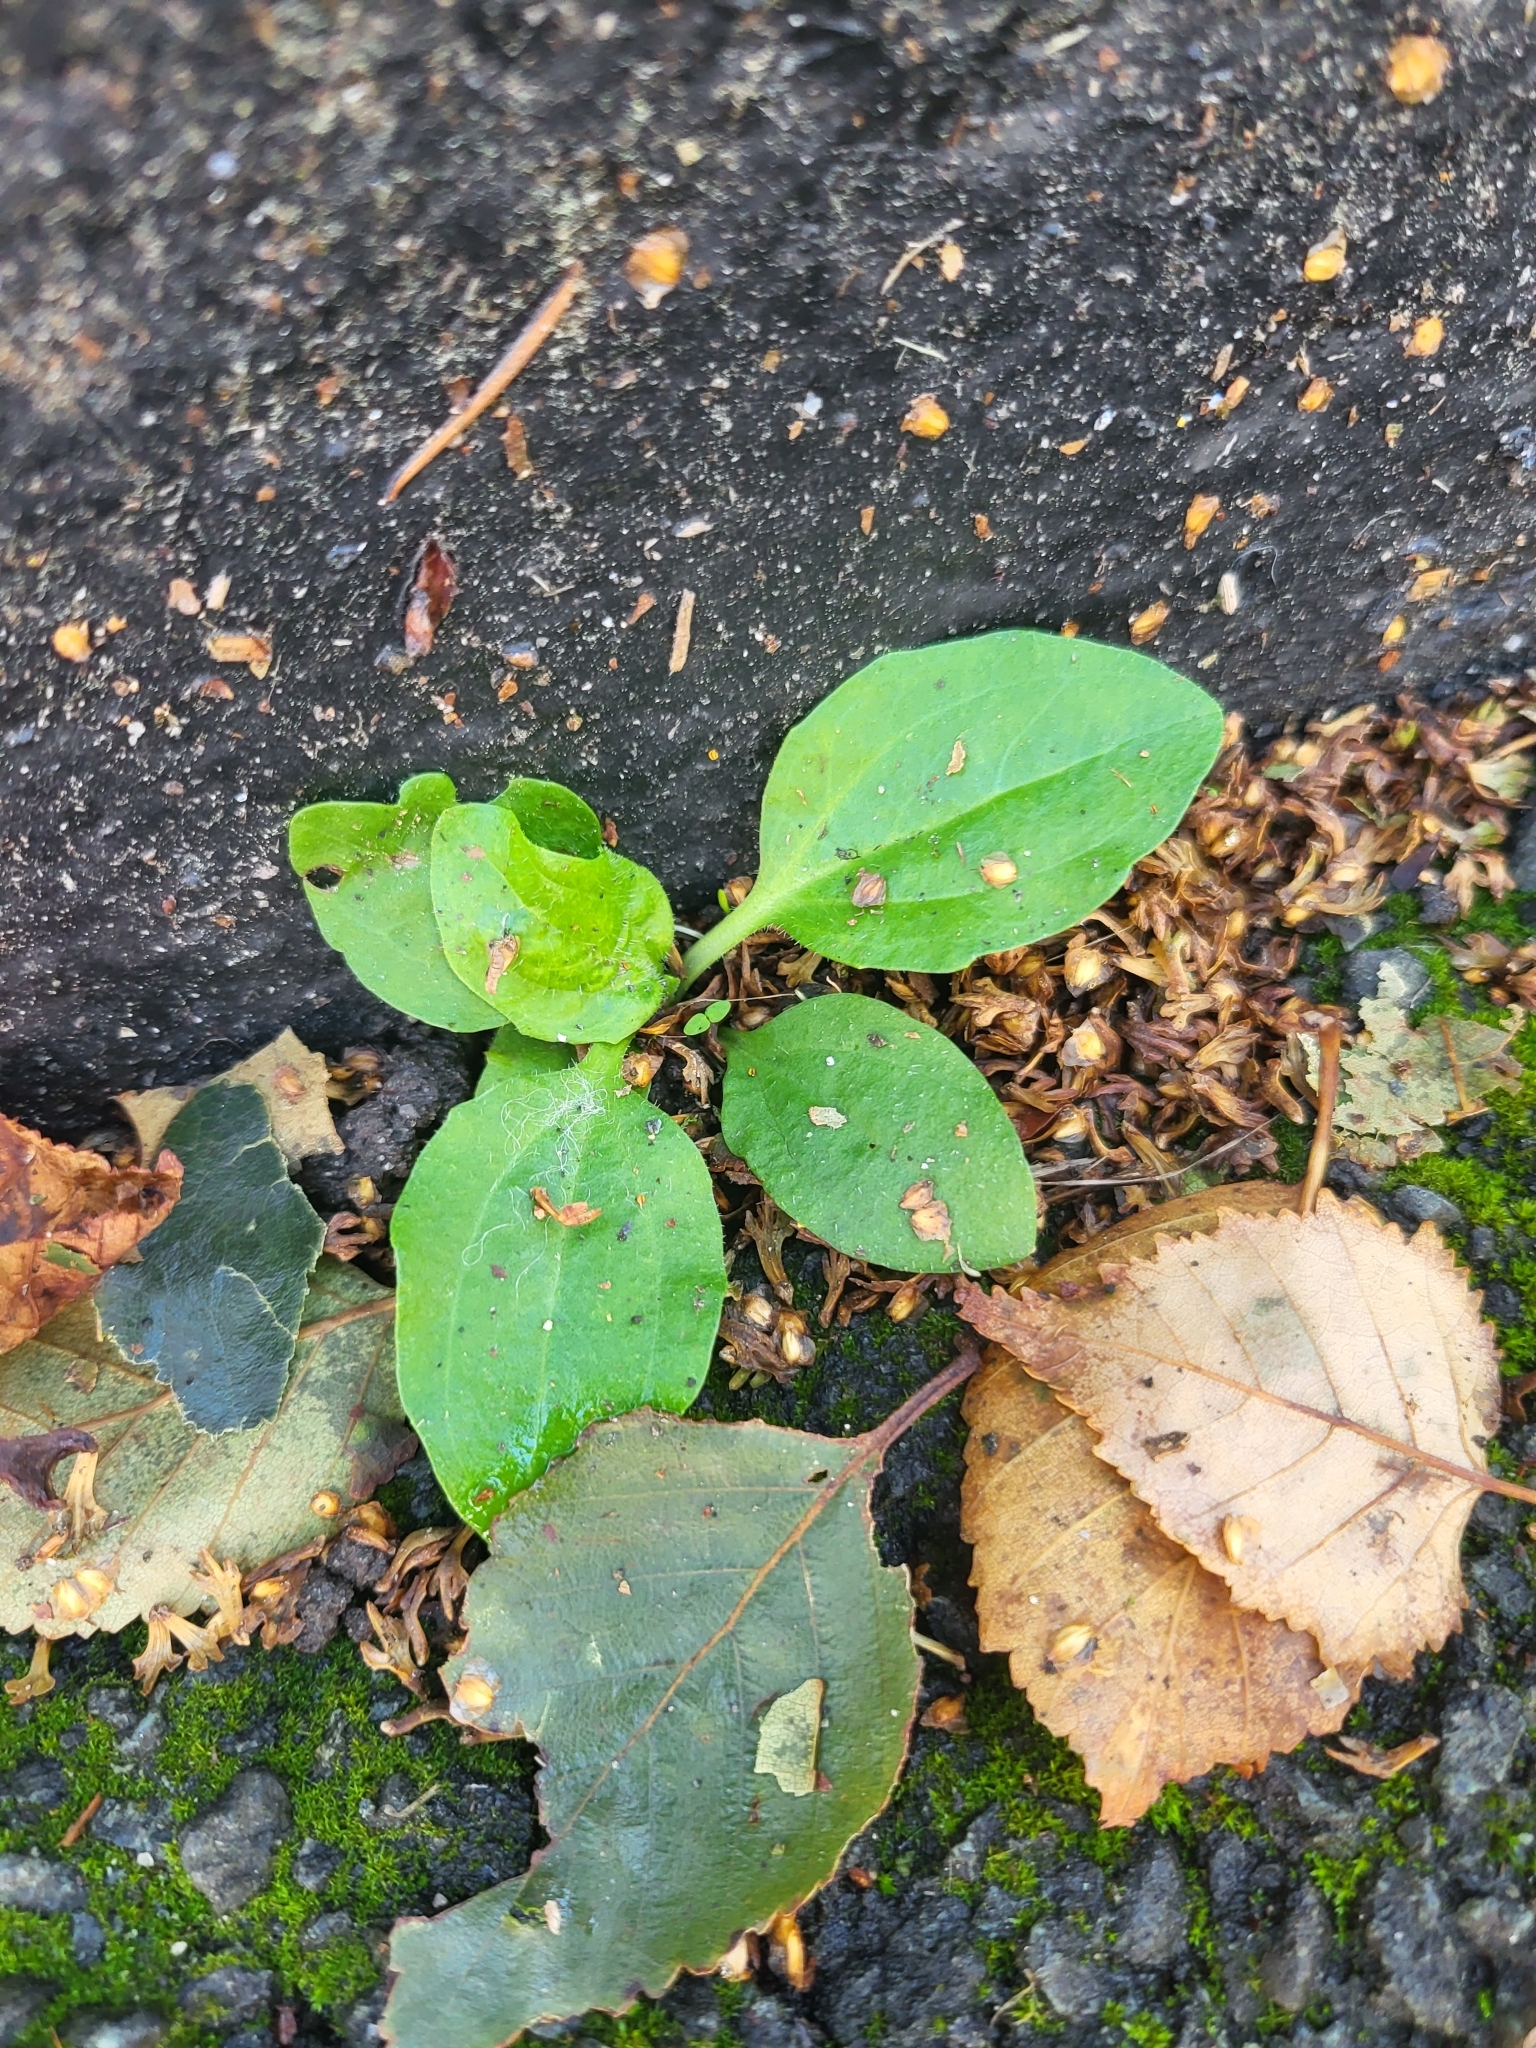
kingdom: Plantae
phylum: Tracheophyta
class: Magnoliopsida
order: Lamiales
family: Plantaginaceae
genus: Plantago
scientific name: Plantago major
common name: Common plantain
